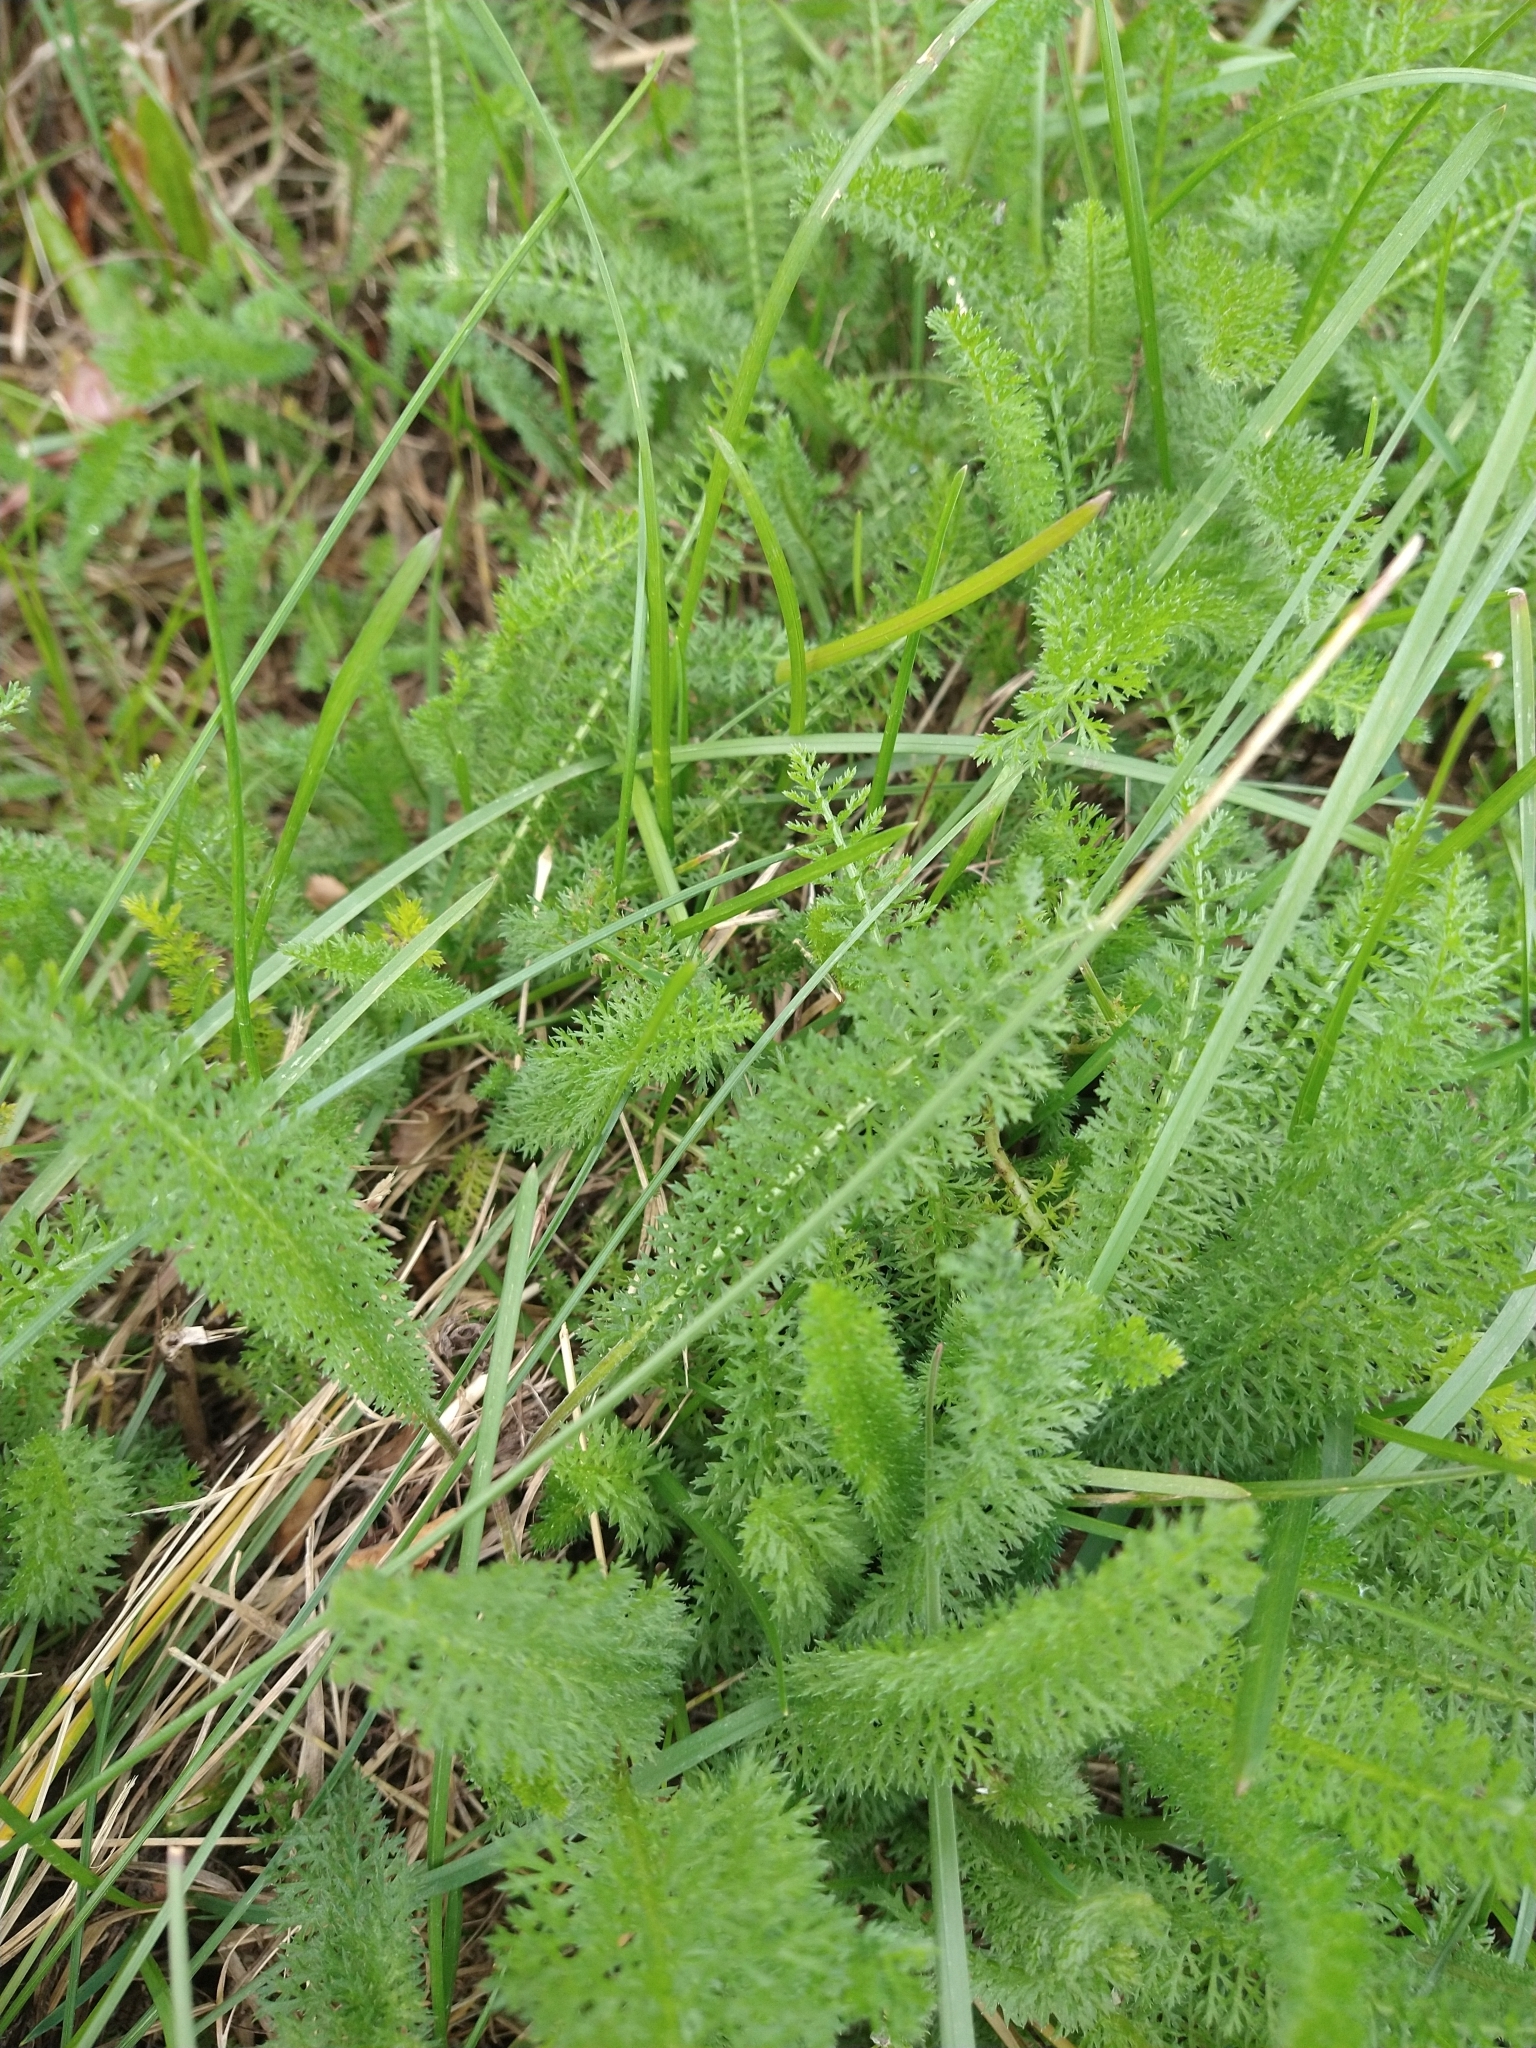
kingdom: Plantae
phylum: Tracheophyta
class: Magnoliopsida
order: Asterales
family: Asteraceae
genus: Achillea
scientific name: Achillea millefolium
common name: Yarrow
